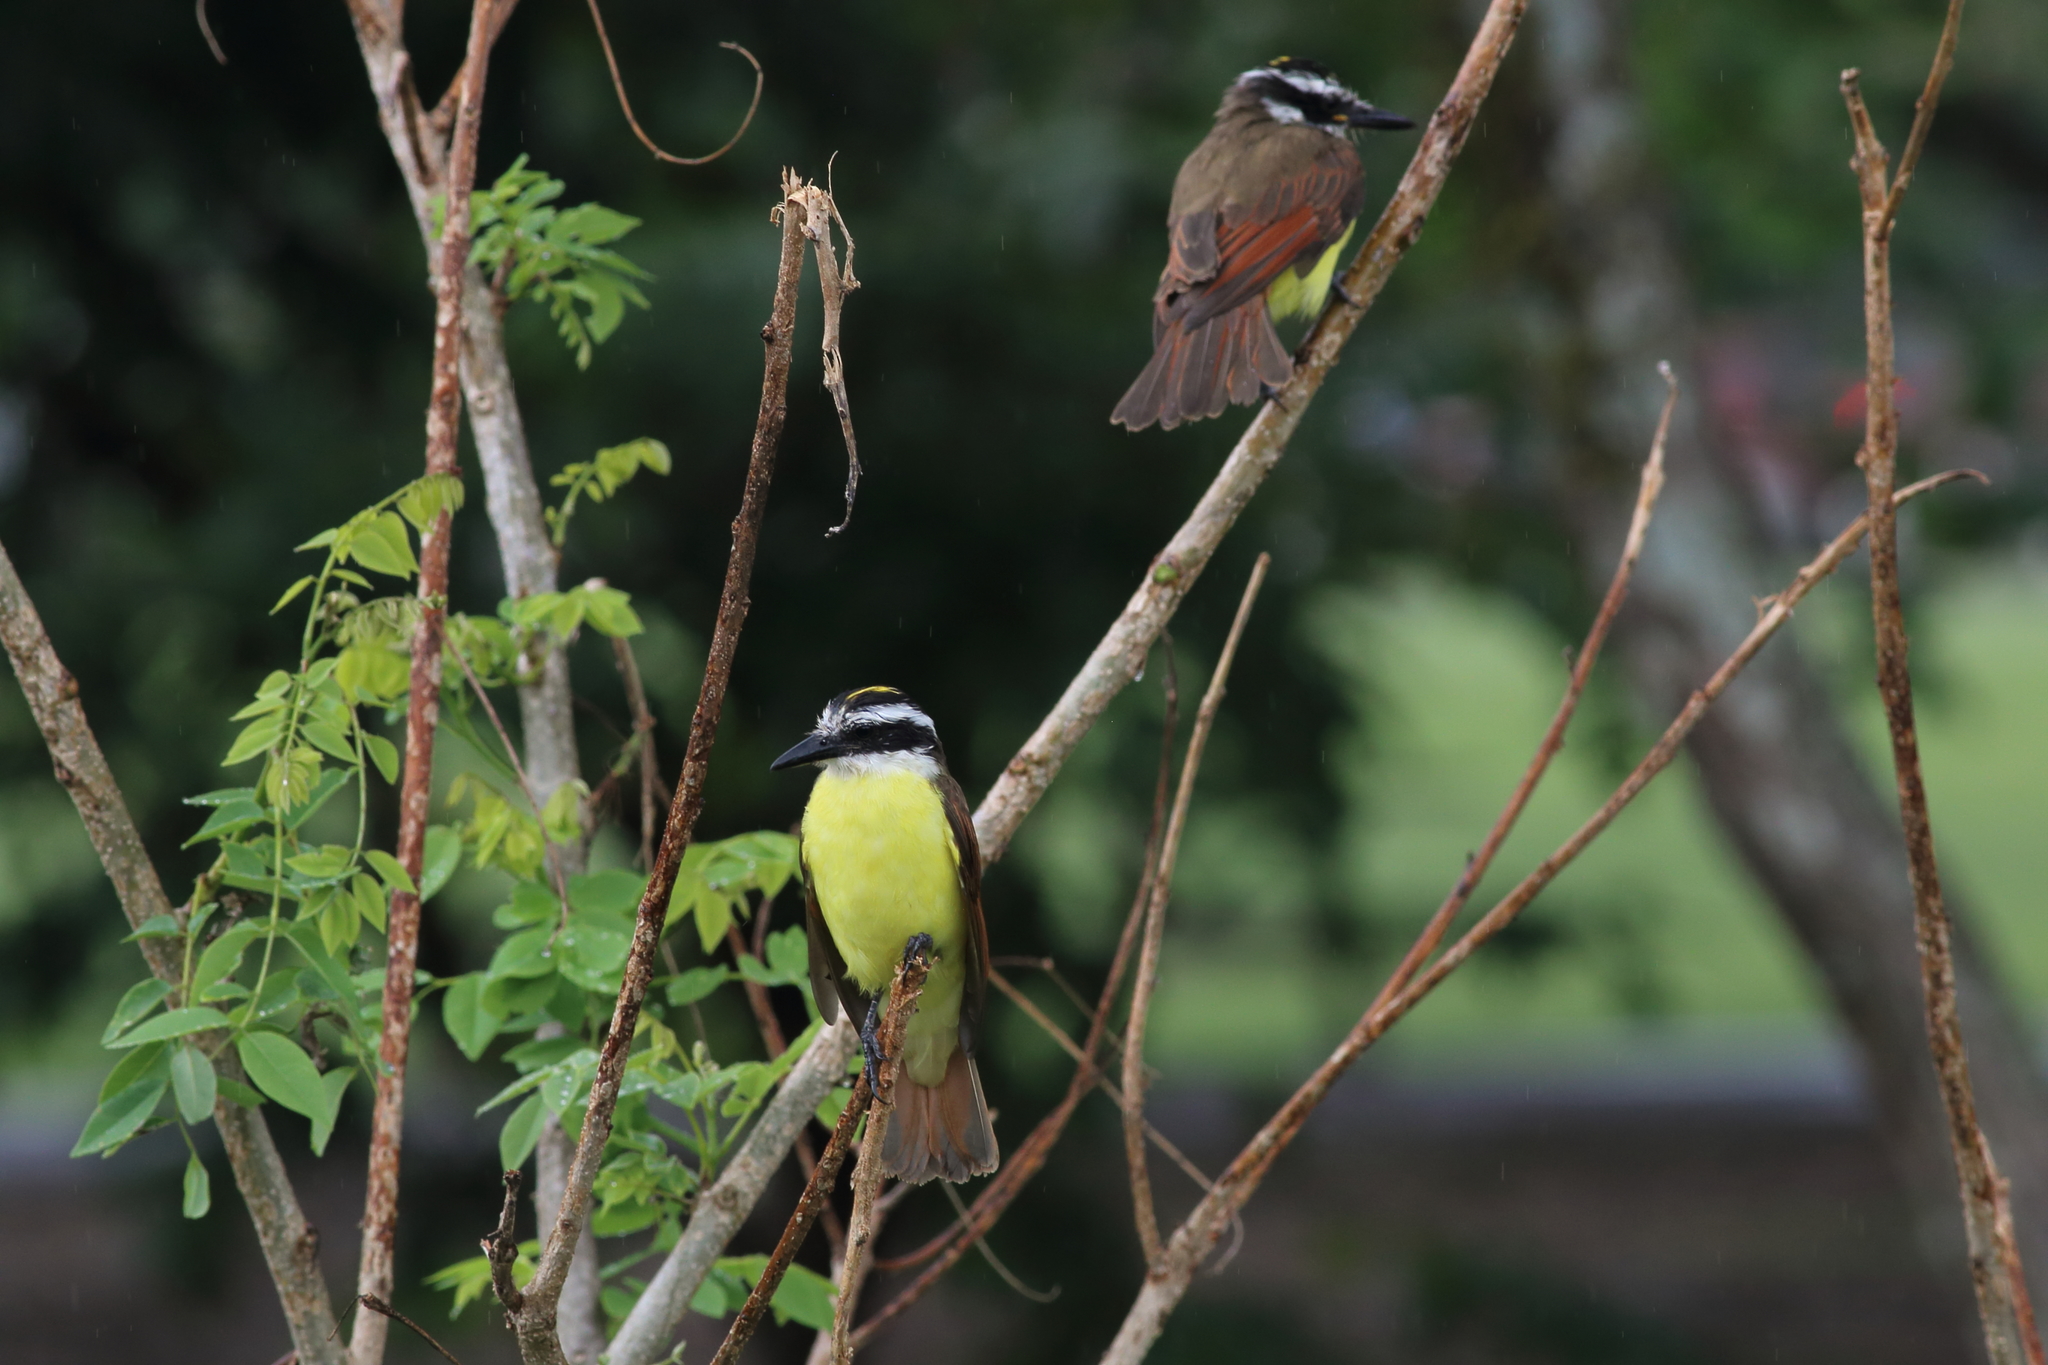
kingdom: Animalia
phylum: Chordata
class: Aves
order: Passeriformes
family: Tyrannidae
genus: Pitangus
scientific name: Pitangus sulphuratus
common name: Great kiskadee
